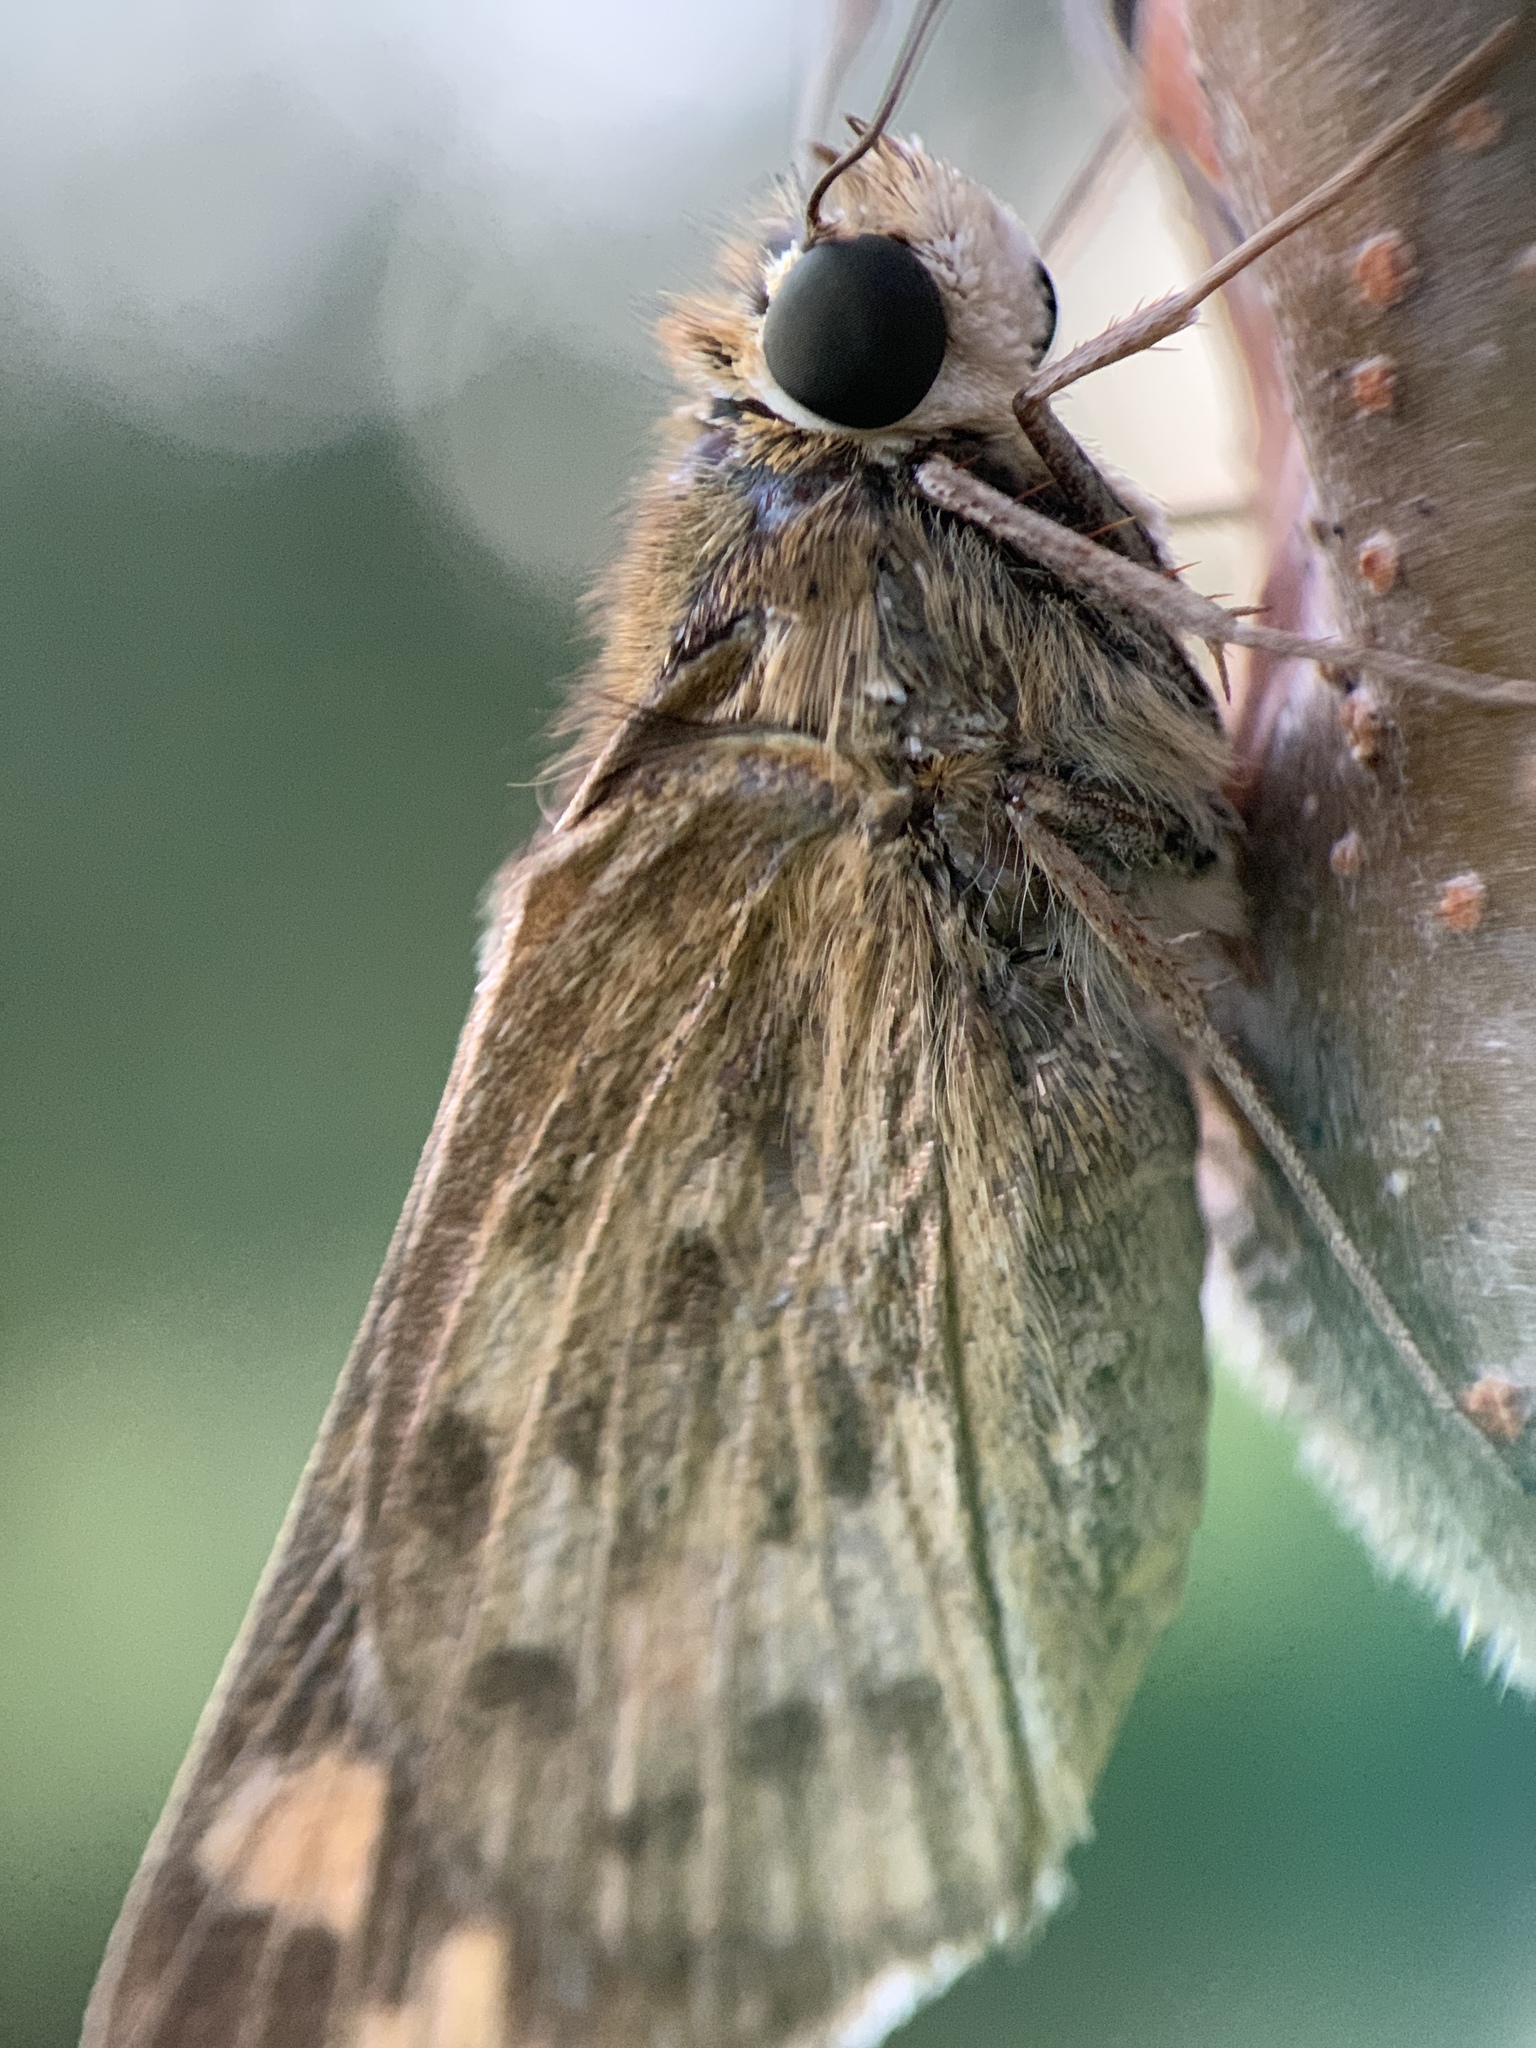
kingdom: Animalia
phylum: Arthropoda
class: Insecta
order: Lepidoptera
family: Hesperiidae
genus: Hylephila
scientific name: Hylephila phyleus
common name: Fiery skipper
